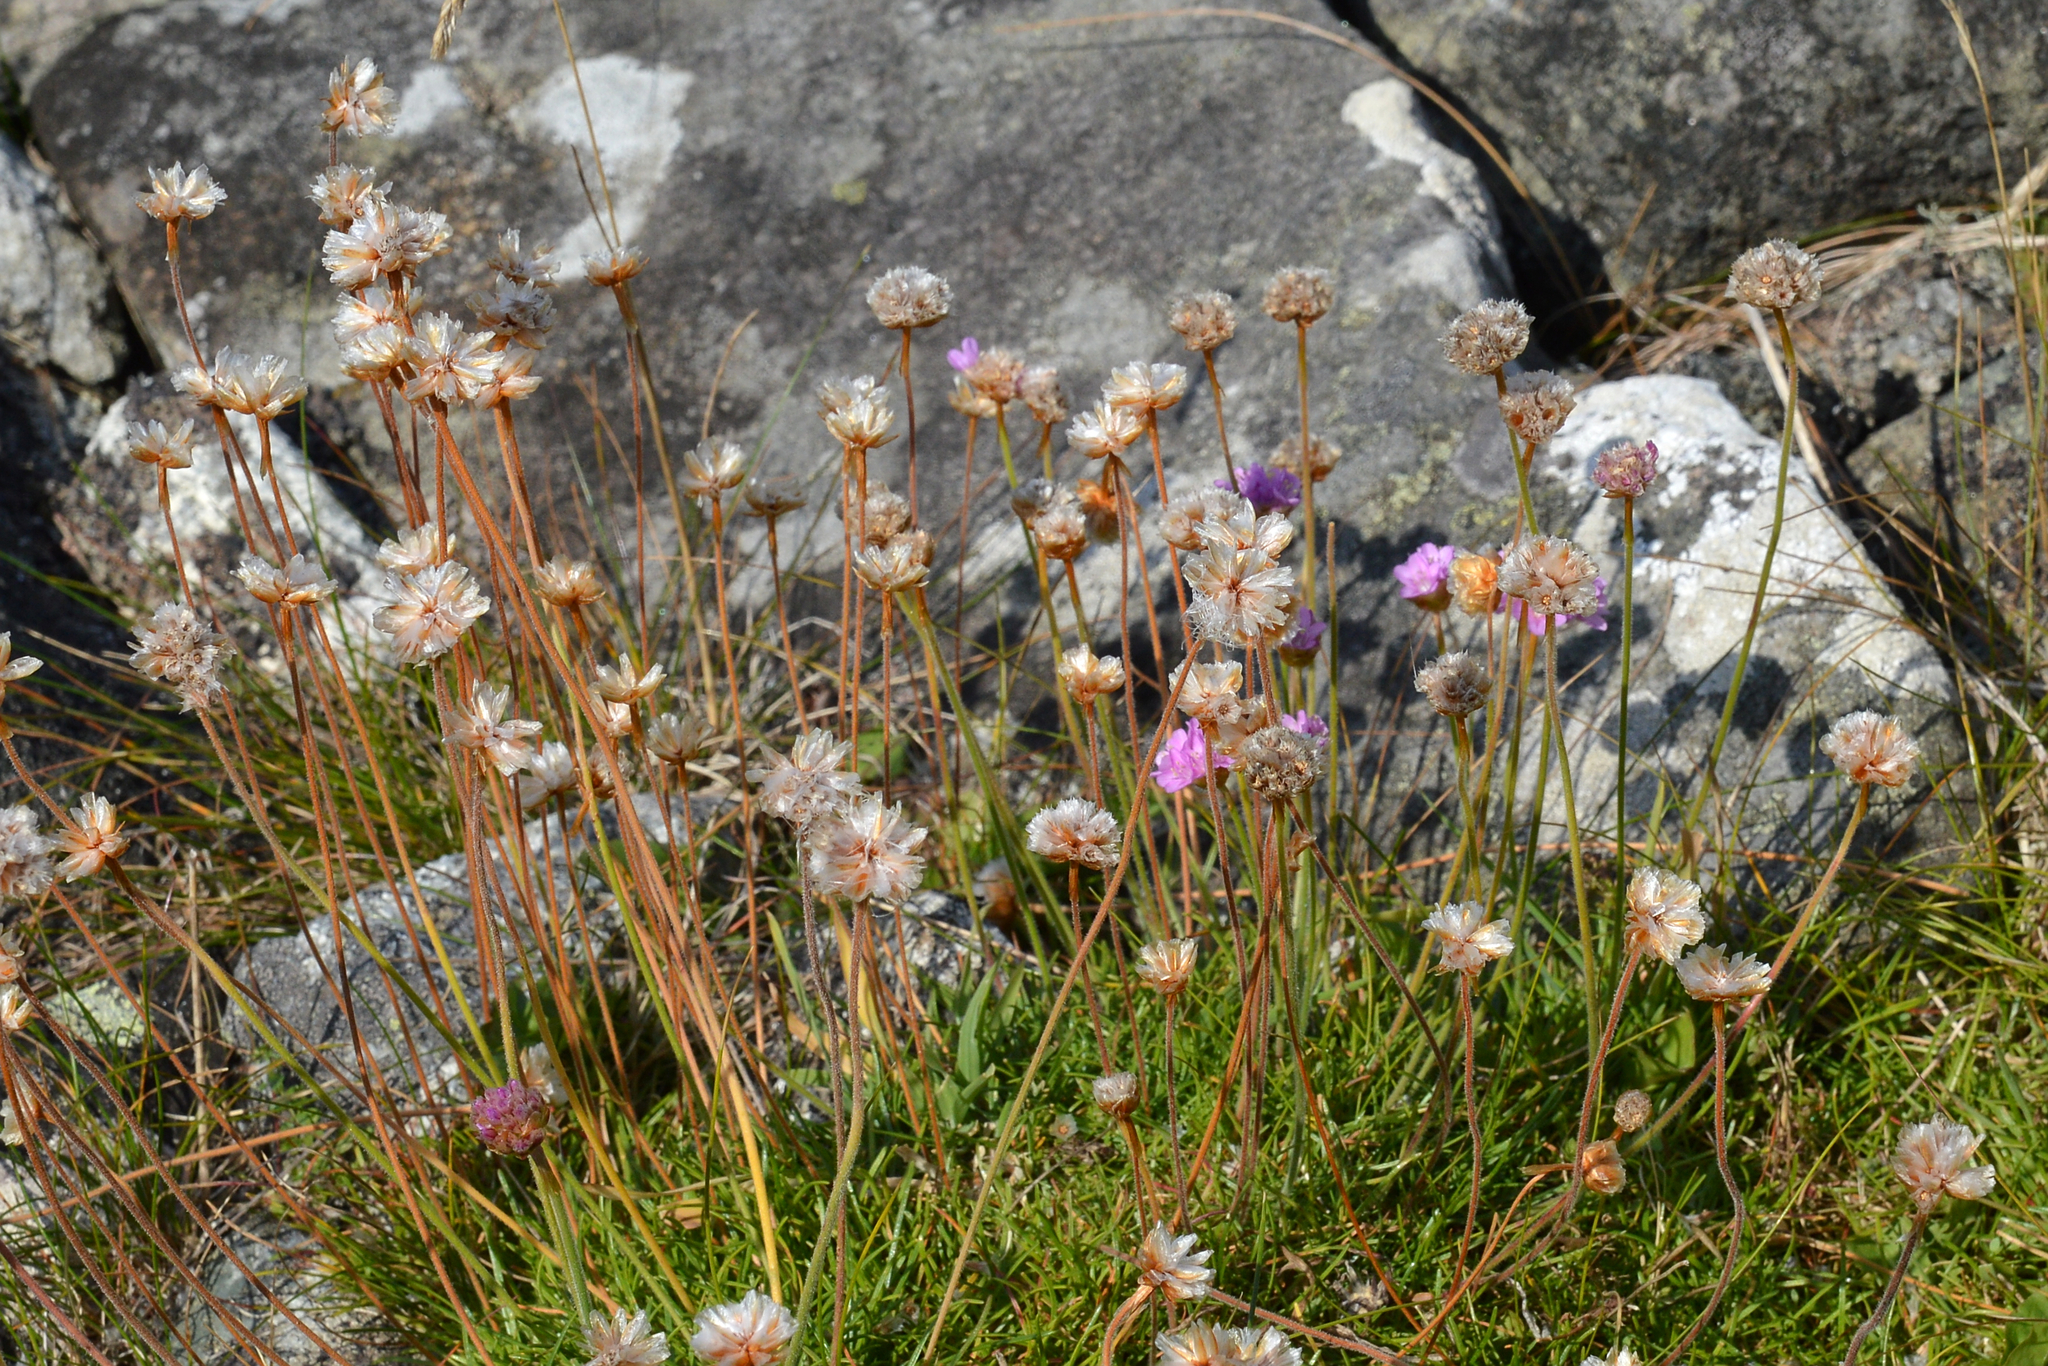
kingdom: Plantae
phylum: Tracheophyta
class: Magnoliopsida
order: Caryophyllales
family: Plumbaginaceae
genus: Armeria
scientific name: Armeria maritima
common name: Thrift
